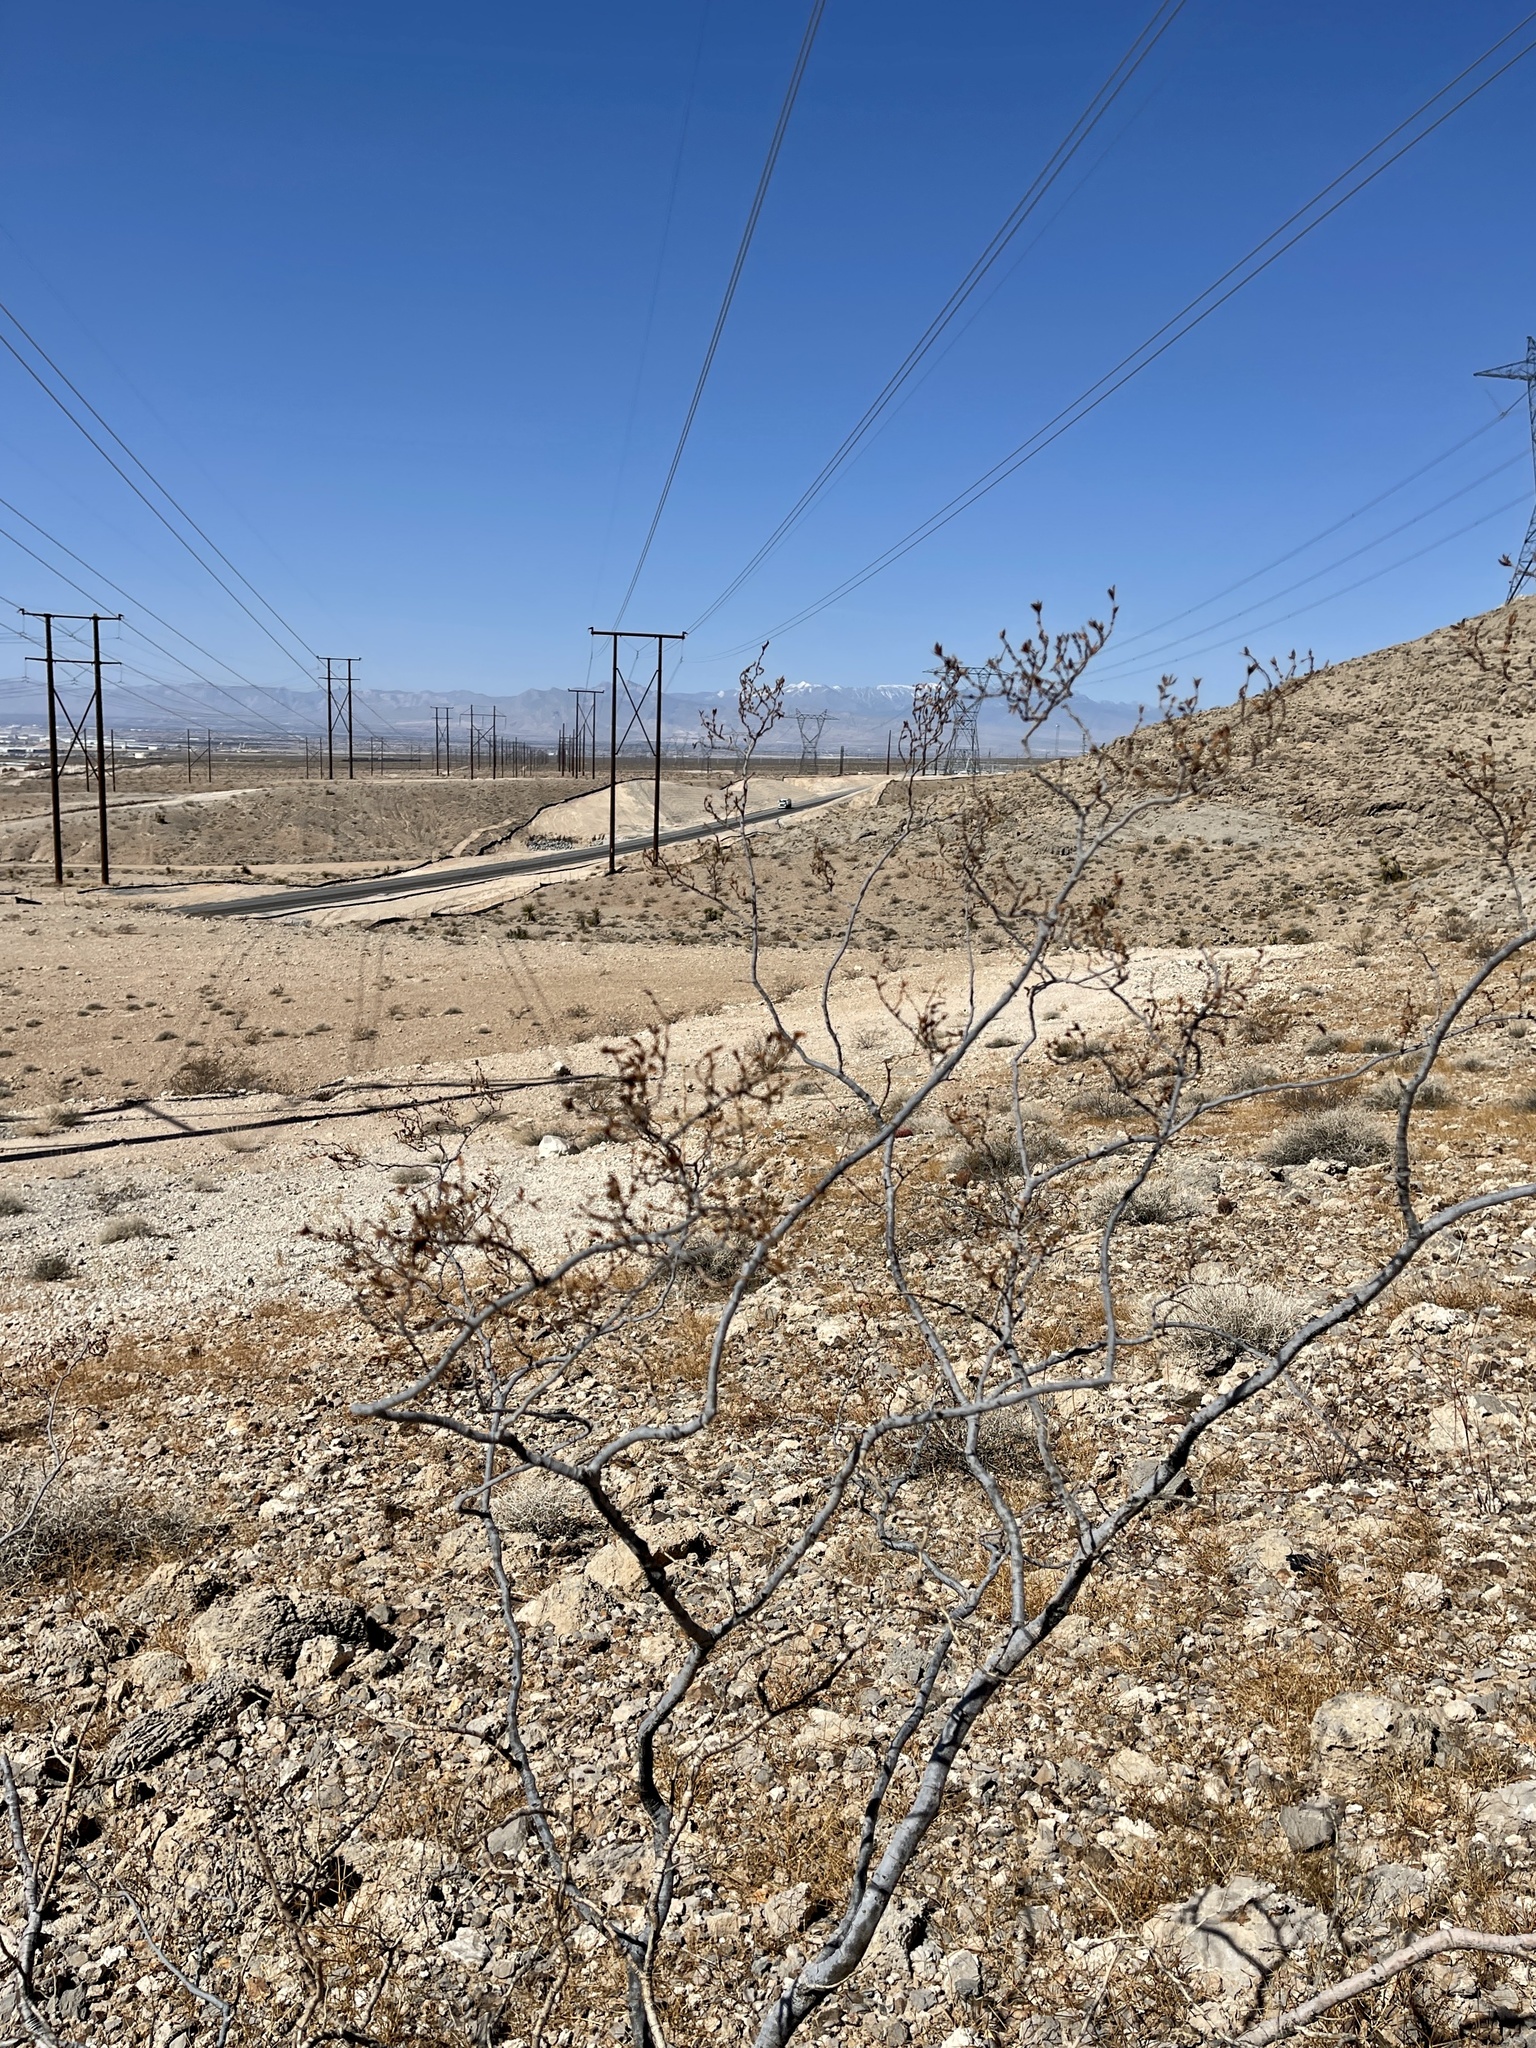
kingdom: Plantae
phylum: Tracheophyta
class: Magnoliopsida
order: Zygophyllales
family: Zygophyllaceae
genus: Larrea
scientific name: Larrea tridentata
